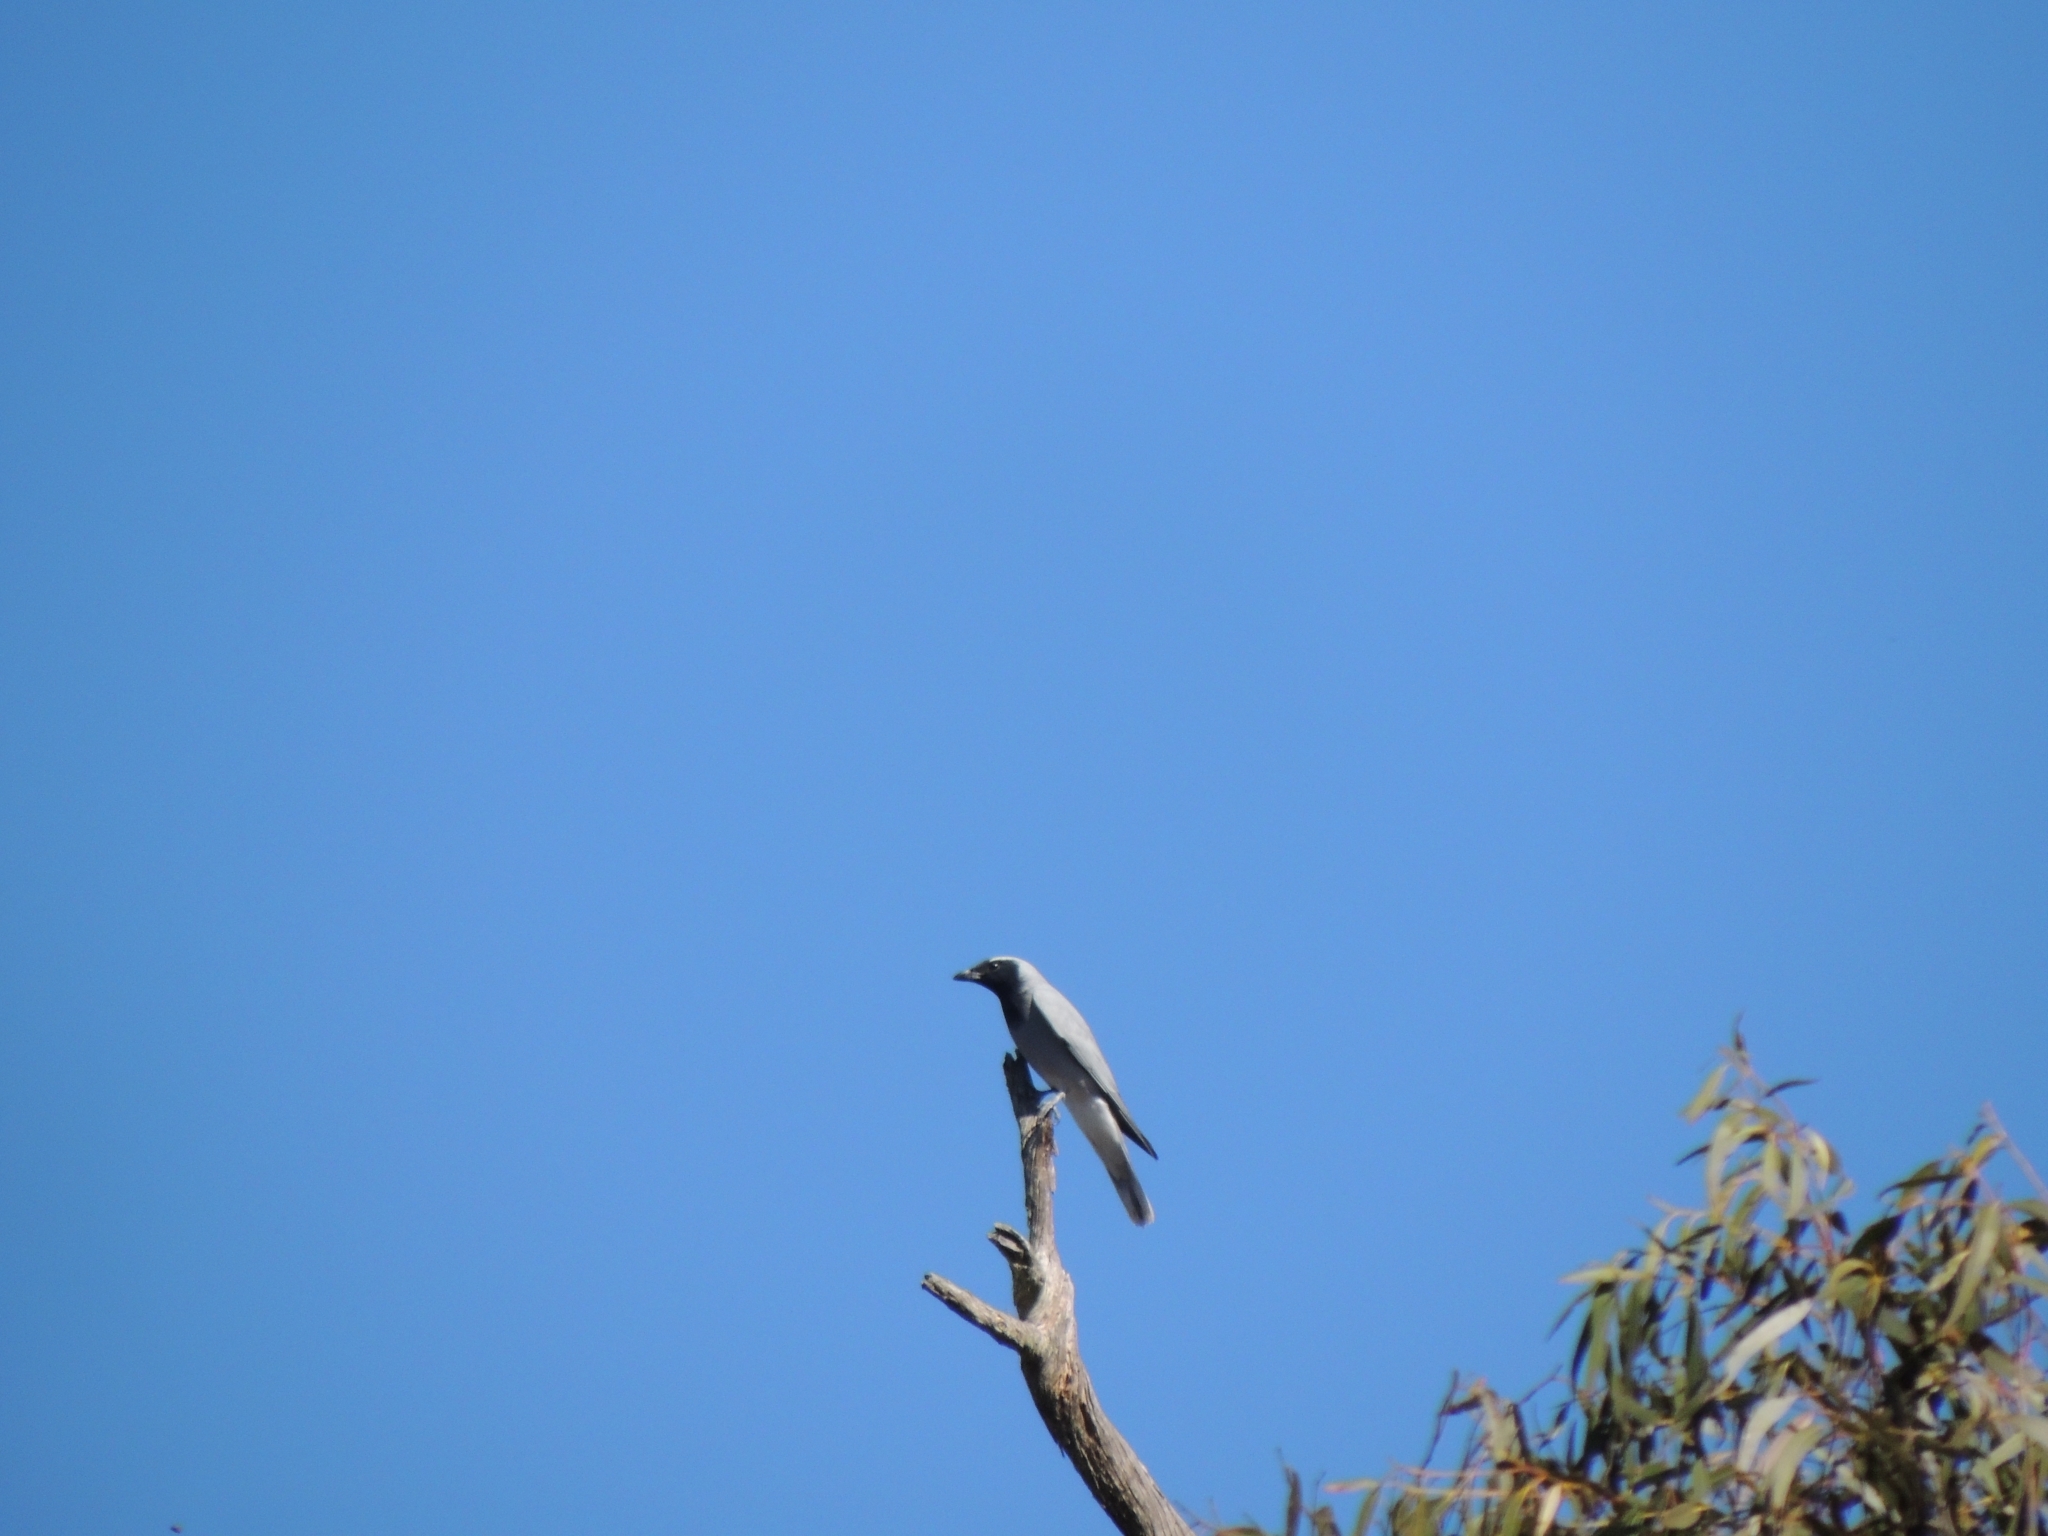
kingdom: Animalia
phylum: Chordata
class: Aves
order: Passeriformes
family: Campephagidae
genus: Coracina
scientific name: Coracina novaehollandiae
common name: Black-faced cuckooshrike
